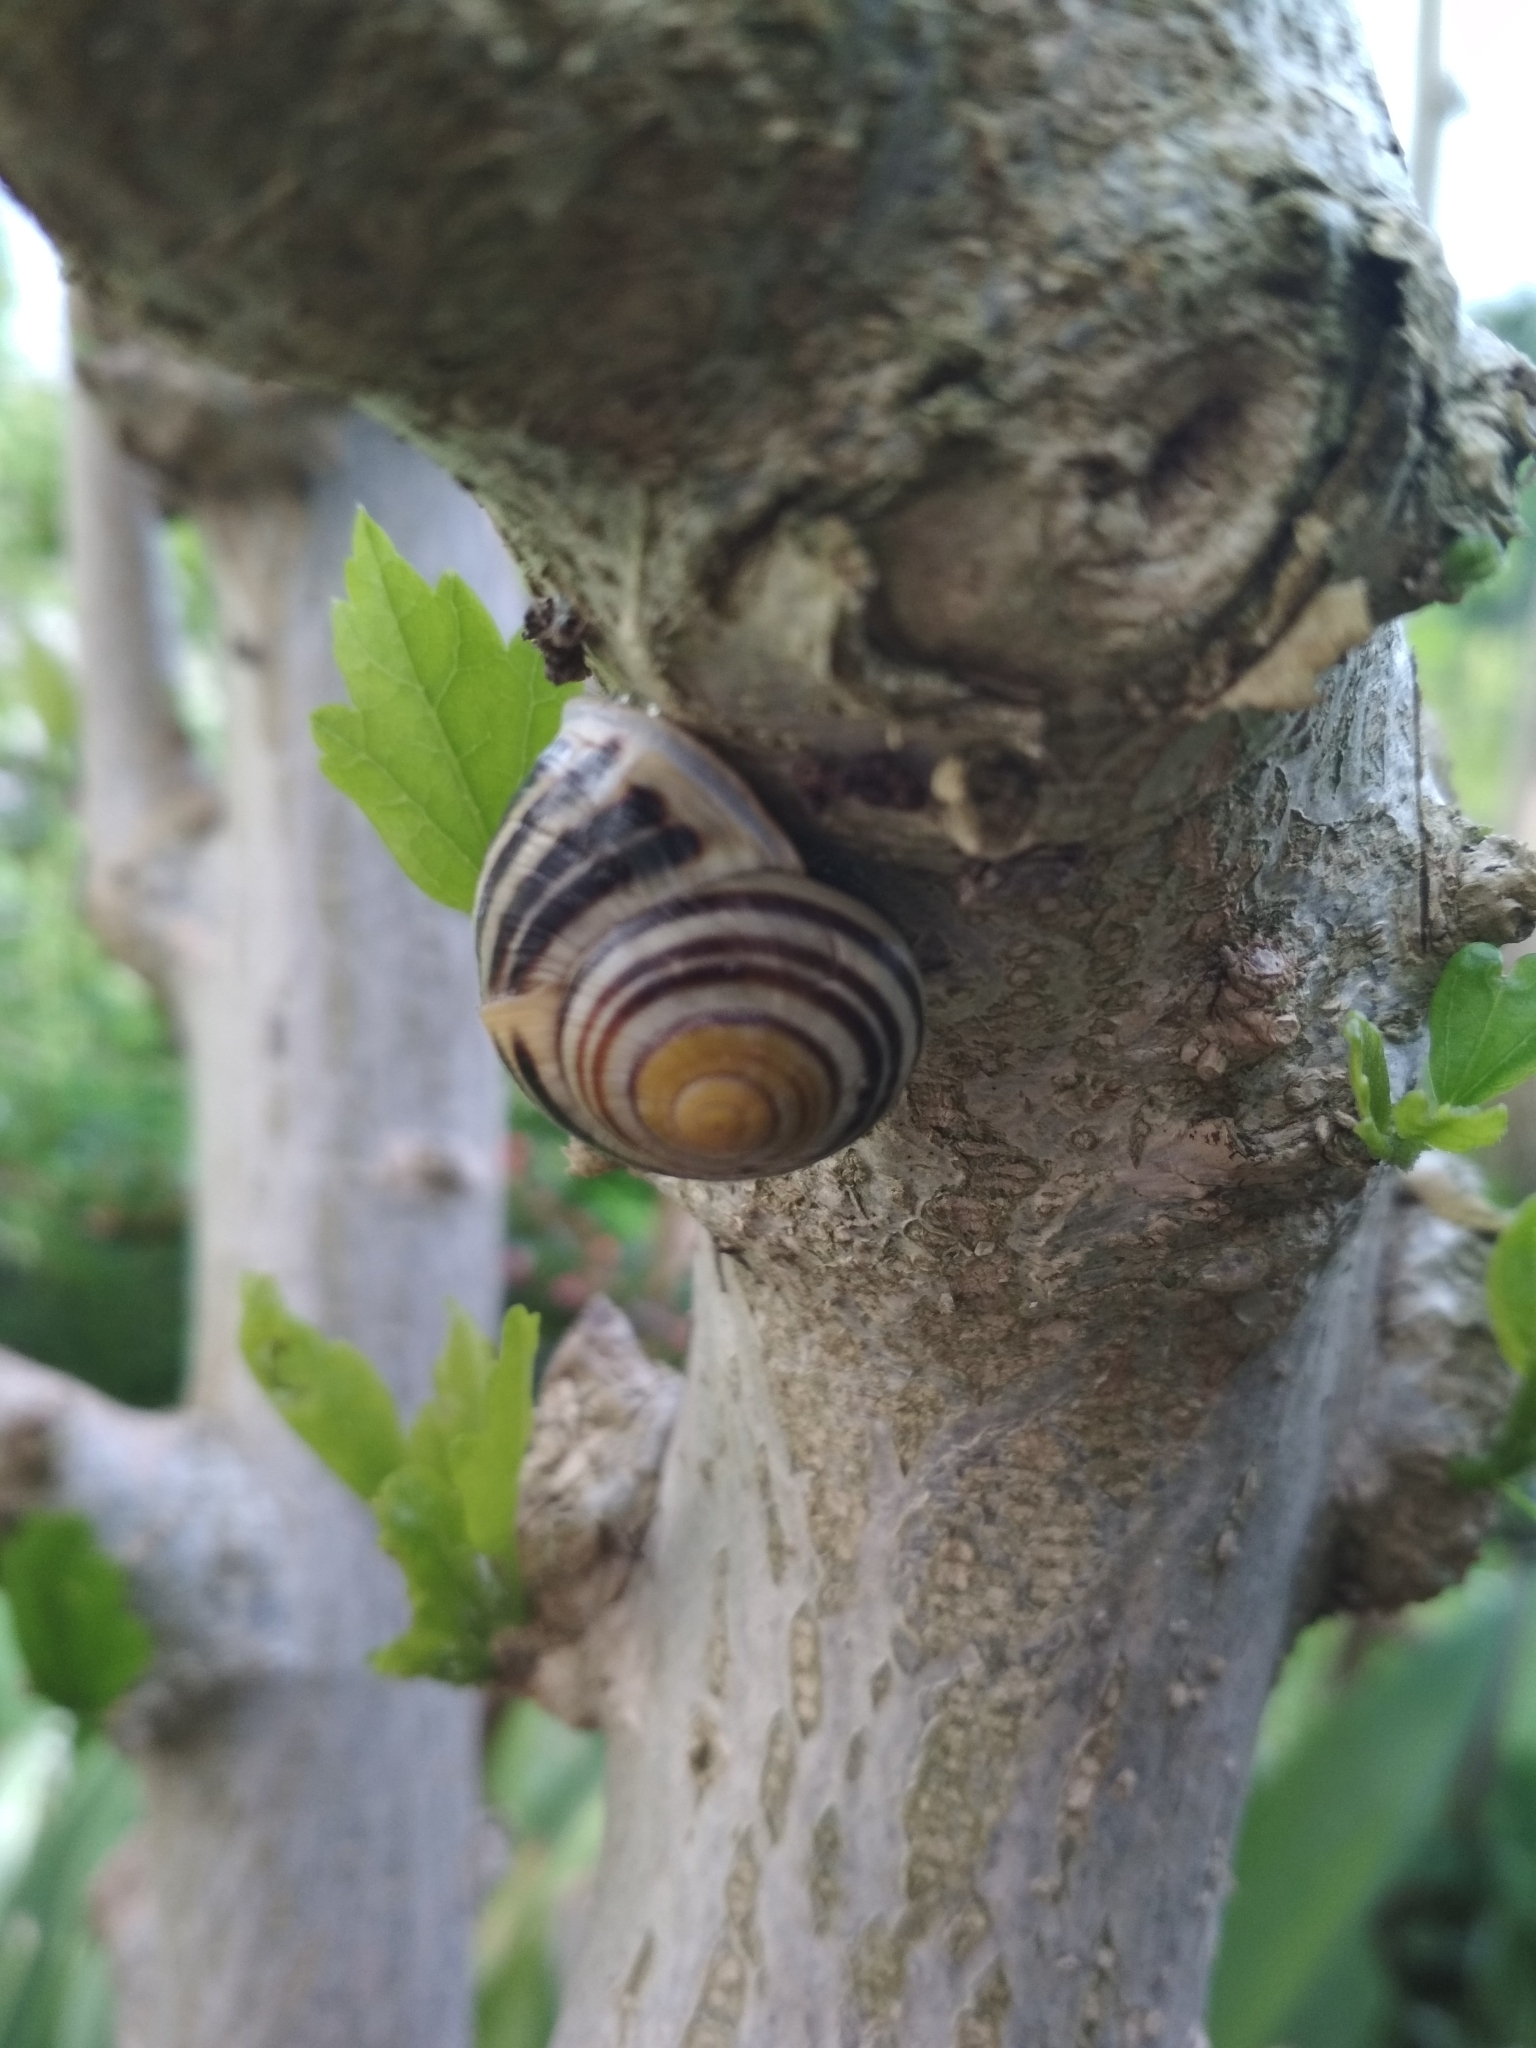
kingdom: Animalia
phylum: Mollusca
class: Gastropoda
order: Stylommatophora
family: Helicidae
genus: Cepaea
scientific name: Cepaea hortensis
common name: White-lip gardensnail
